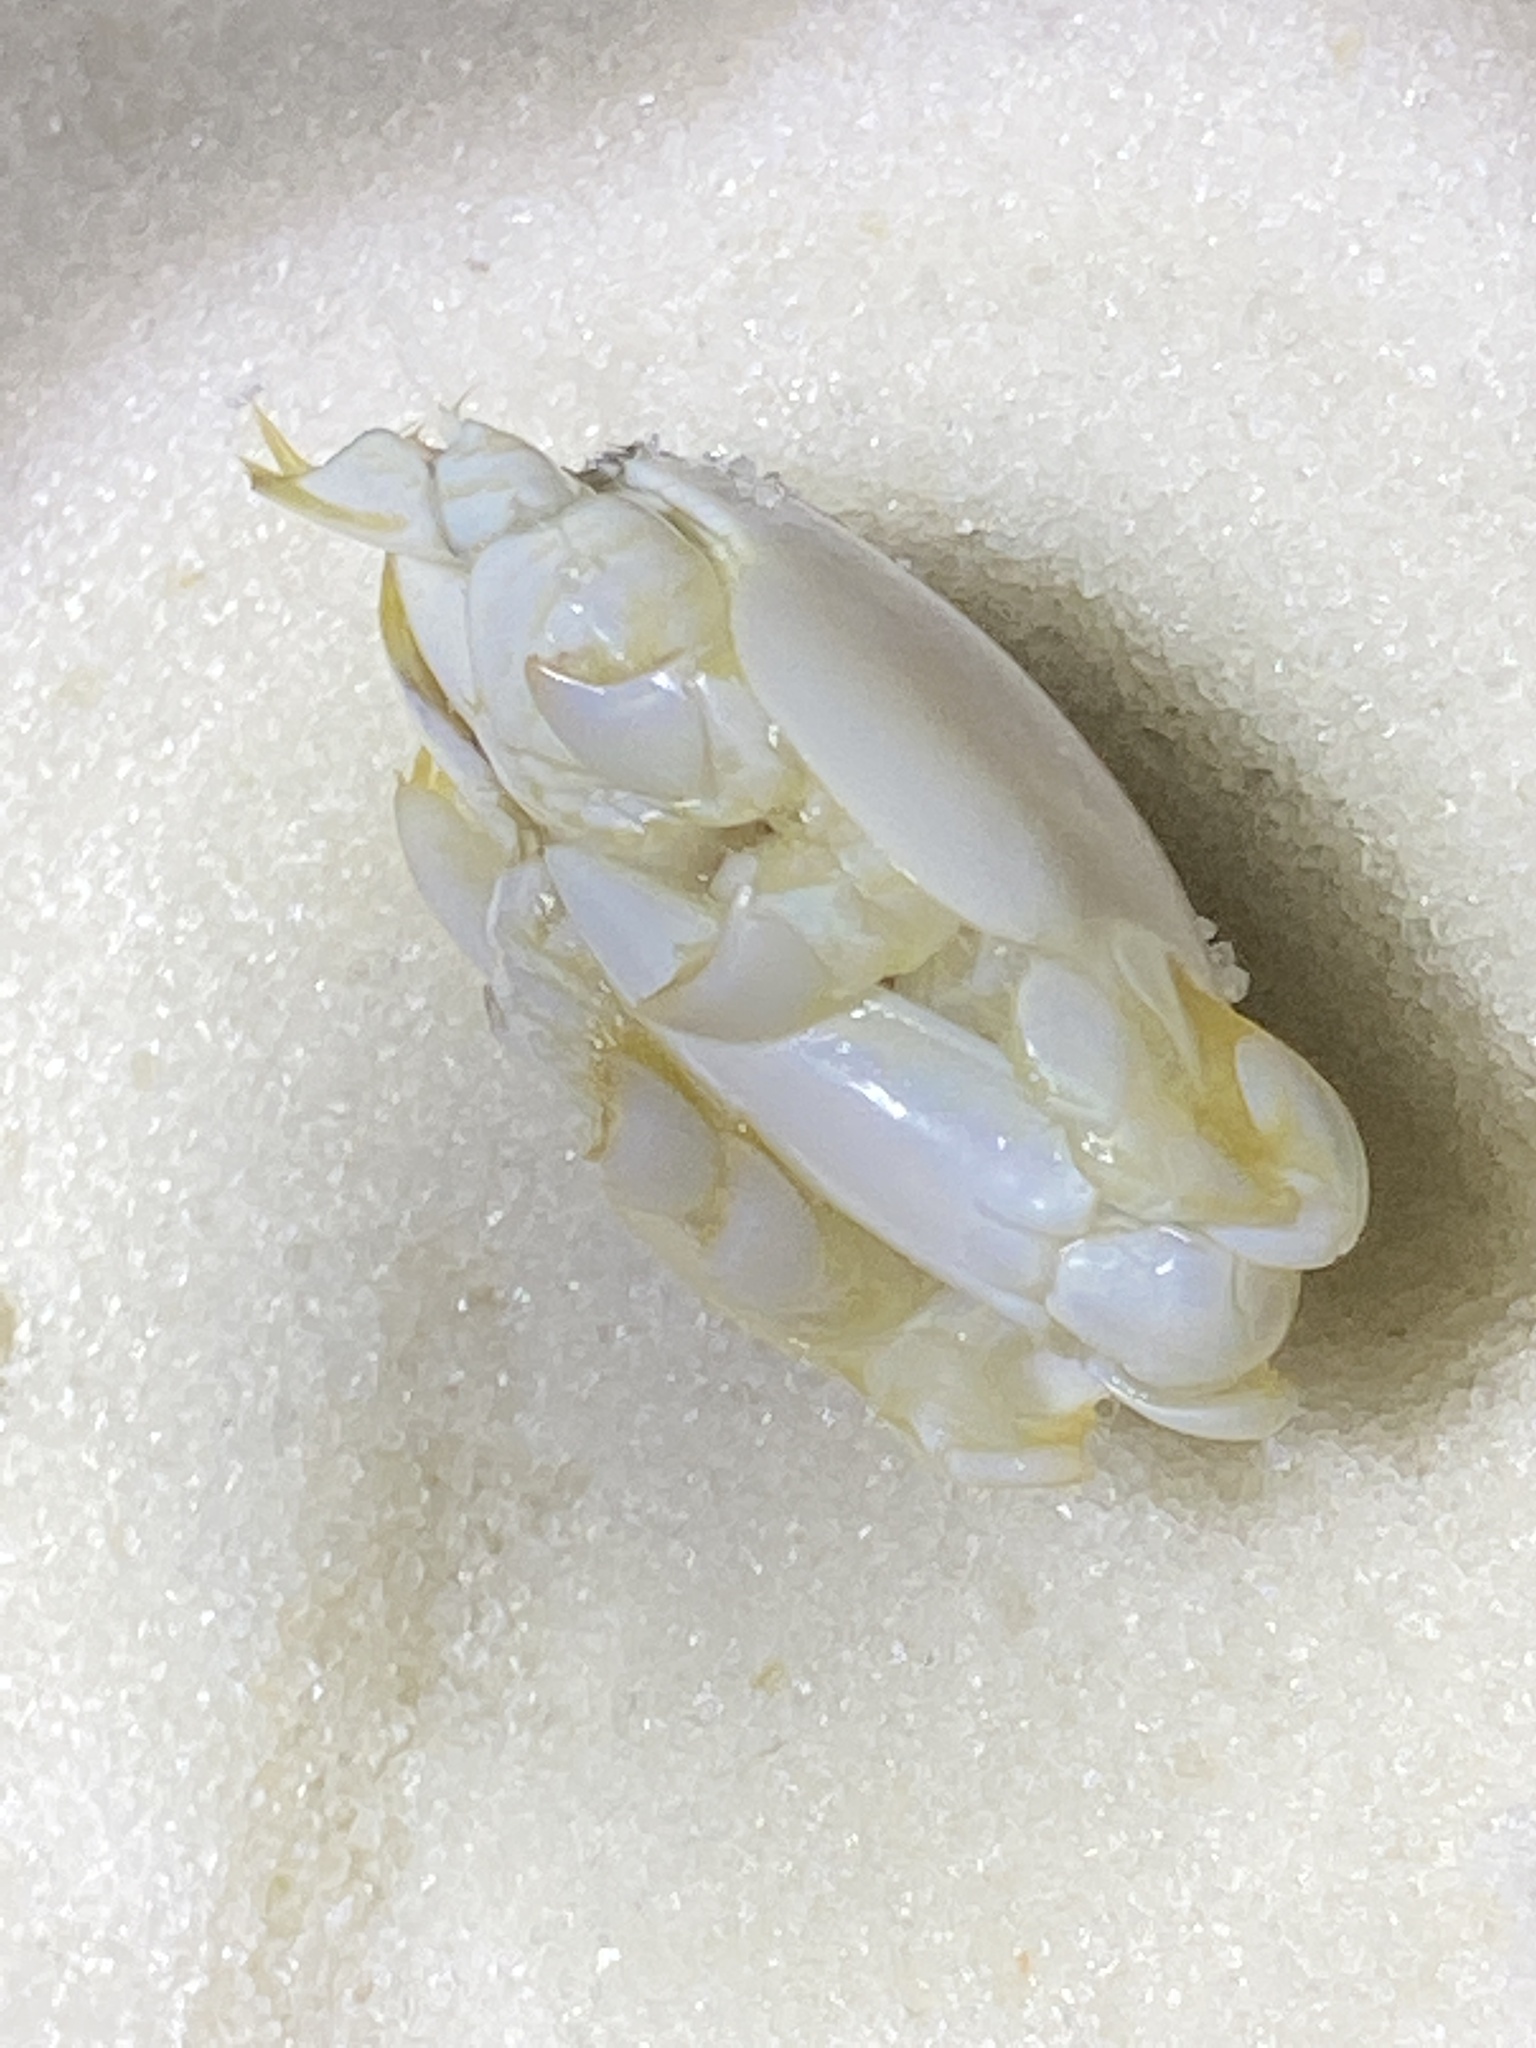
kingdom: Animalia
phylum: Arthropoda
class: Malacostraca
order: Decapoda
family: Hippidae
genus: Emerita
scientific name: Emerita talpoida
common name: Atlantic sand crab
